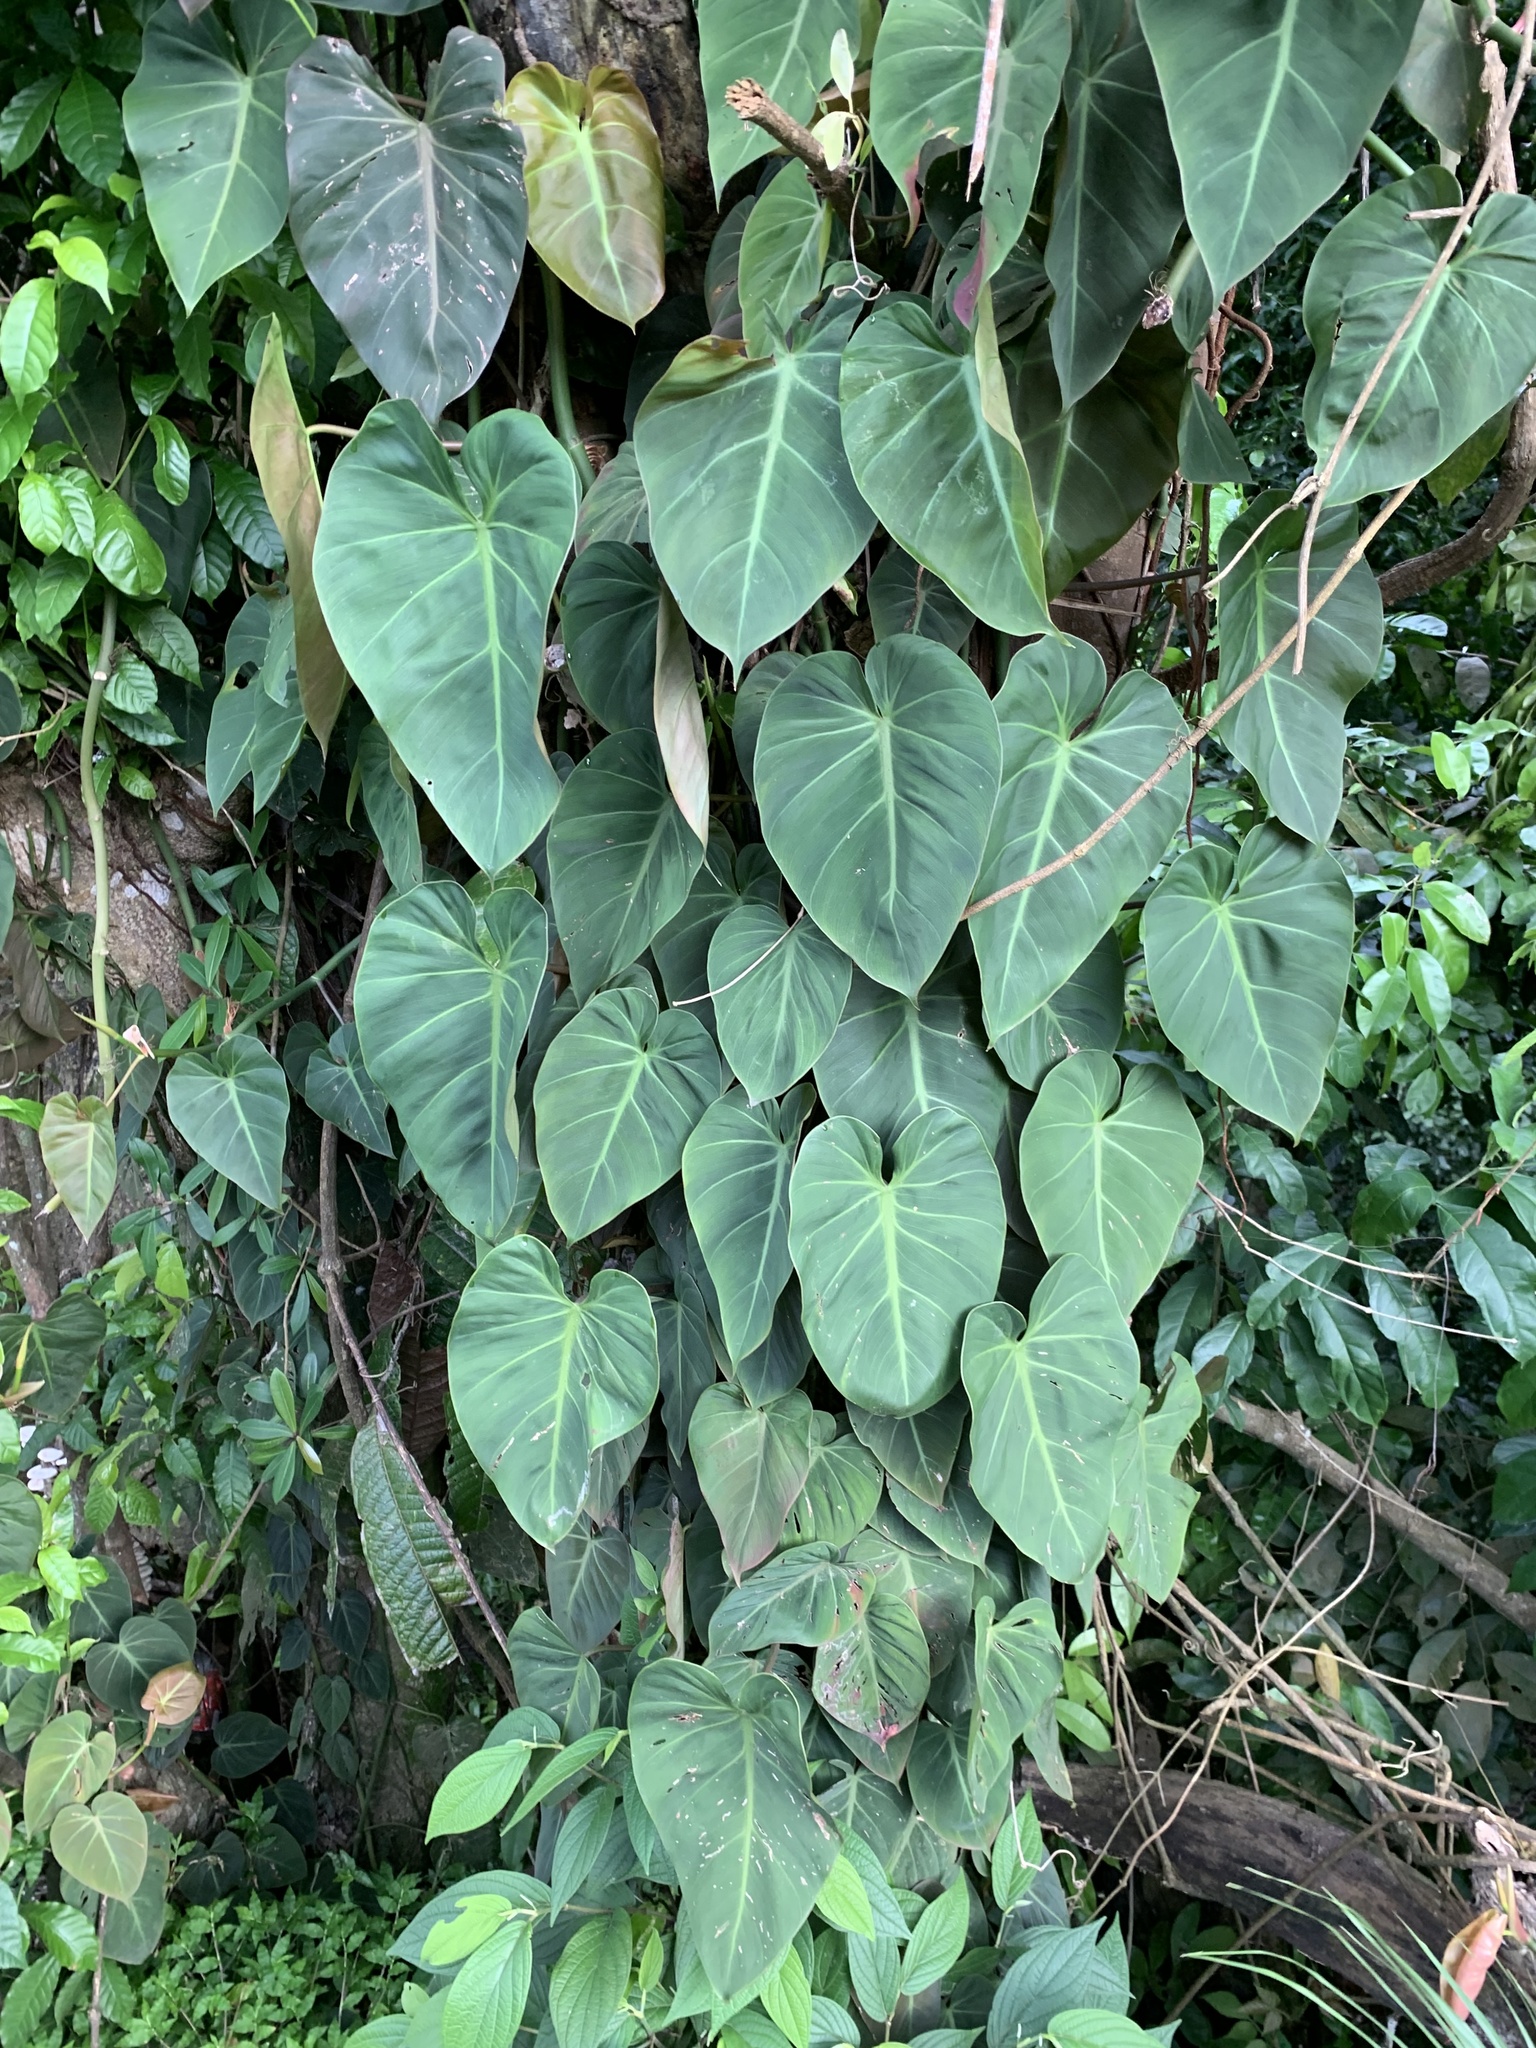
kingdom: Plantae
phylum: Tracheophyta
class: Liliopsida
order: Alismatales
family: Araceae
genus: Philodendron
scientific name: Philodendron hederaceum
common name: Vilevine
